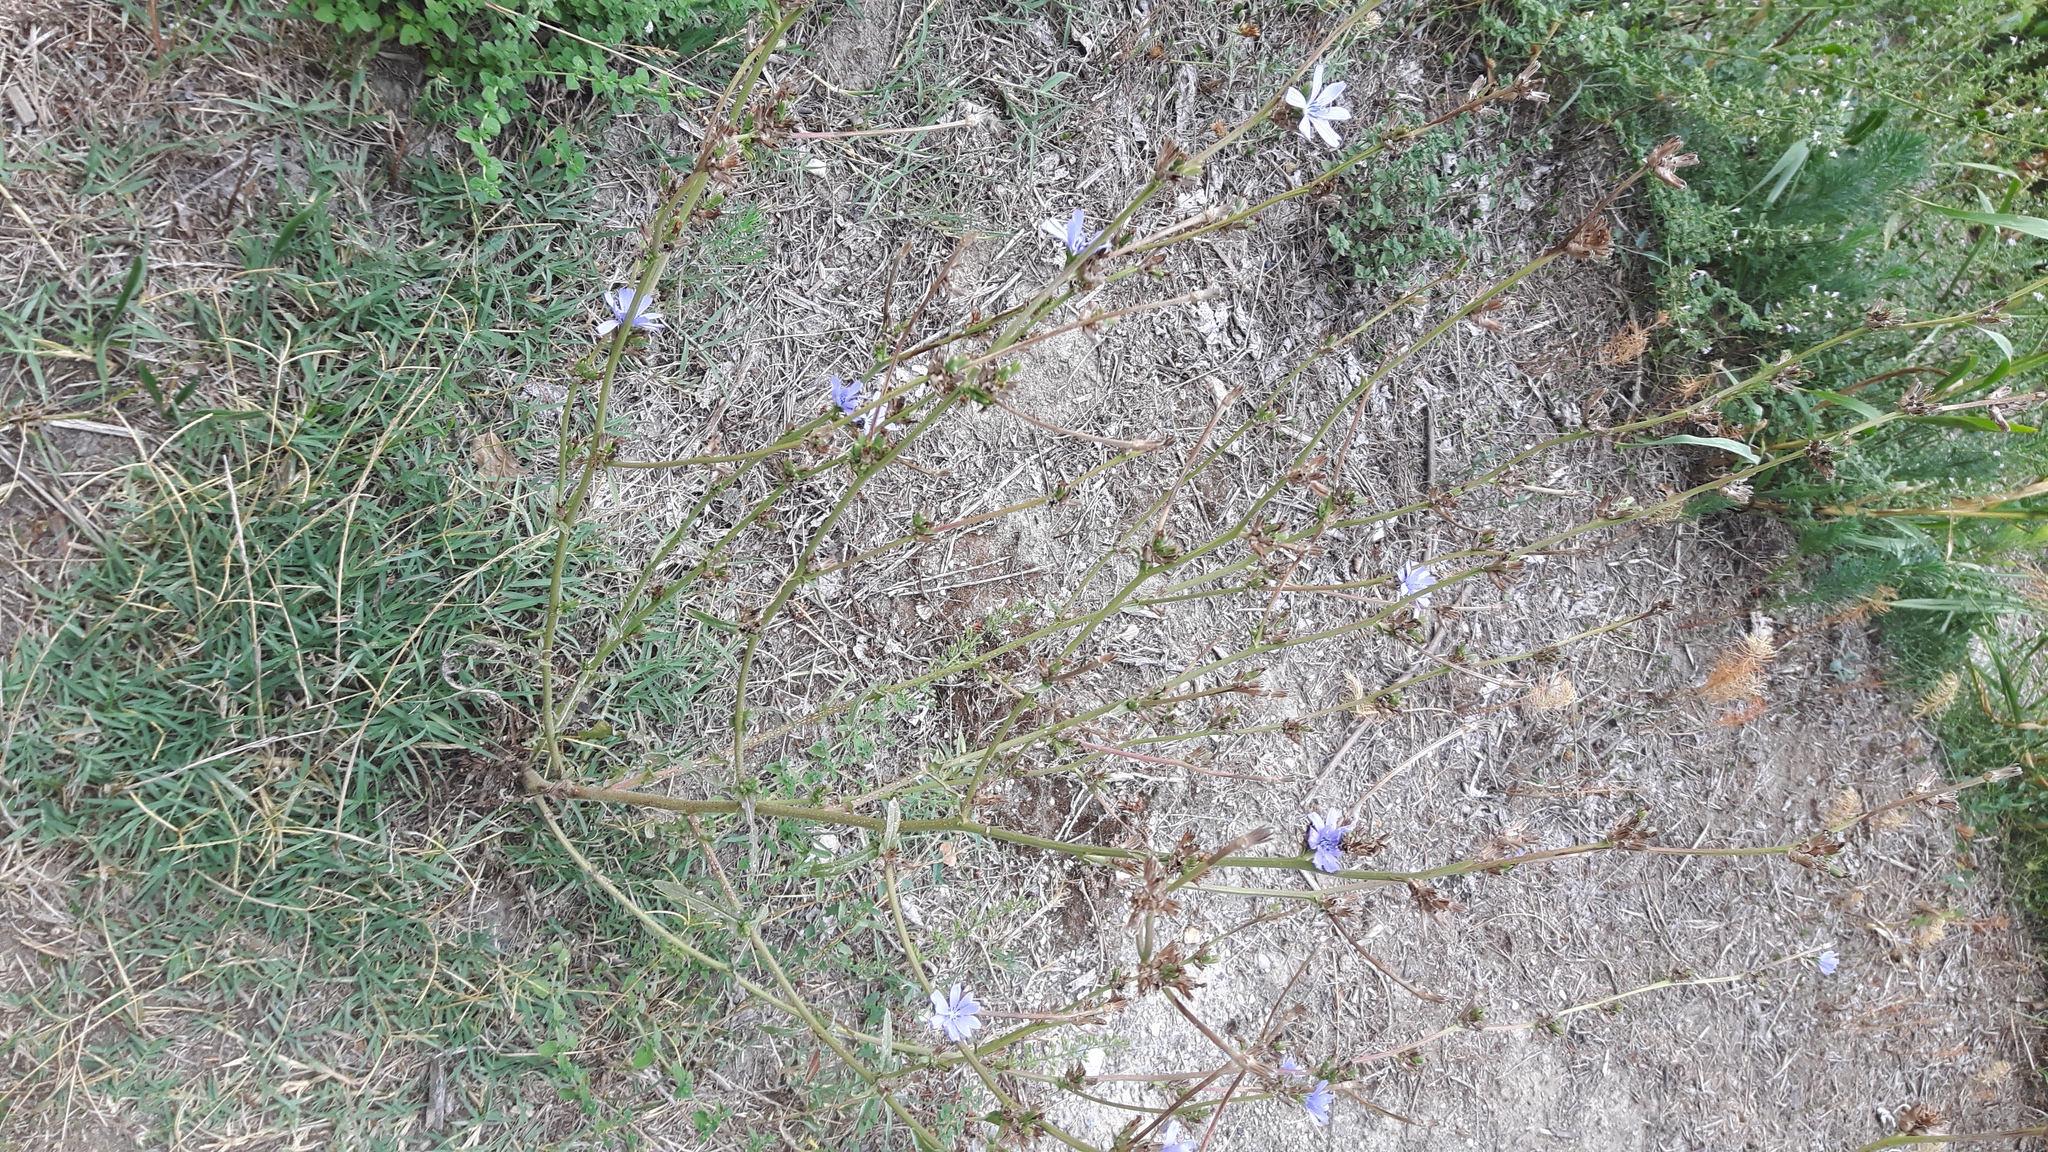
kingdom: Plantae
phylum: Tracheophyta
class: Magnoliopsida
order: Asterales
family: Asteraceae
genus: Cichorium
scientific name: Cichorium intybus
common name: Chicory
